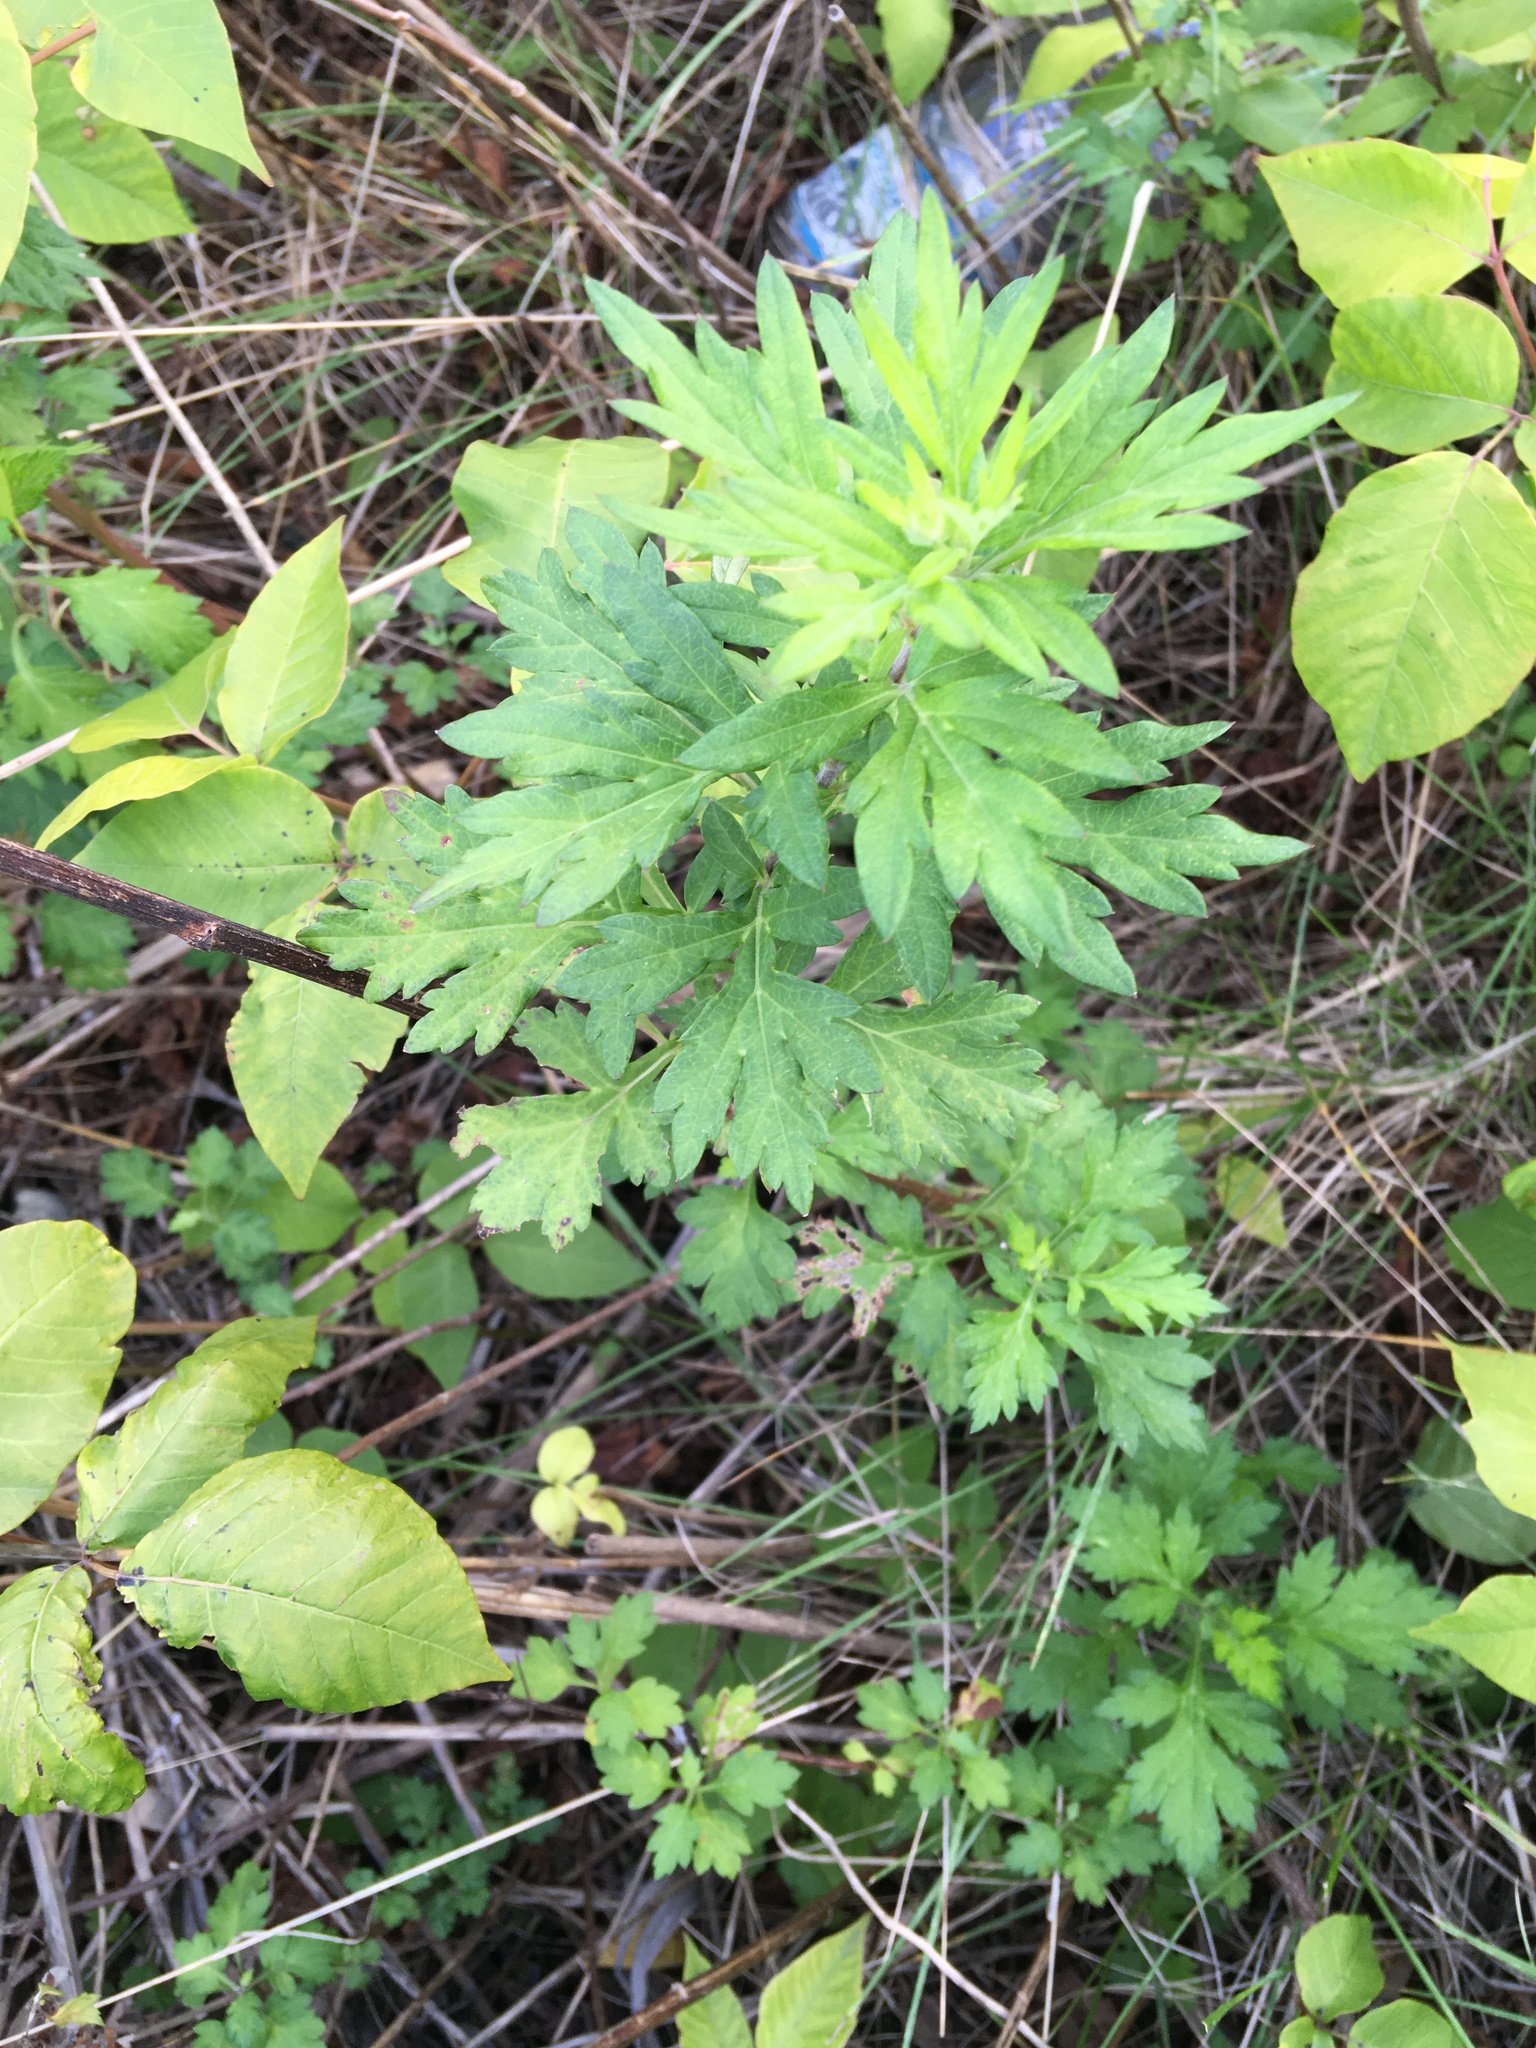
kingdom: Plantae
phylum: Tracheophyta
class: Magnoliopsida
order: Asterales
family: Asteraceae
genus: Artemisia
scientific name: Artemisia vulgaris
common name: Mugwort
